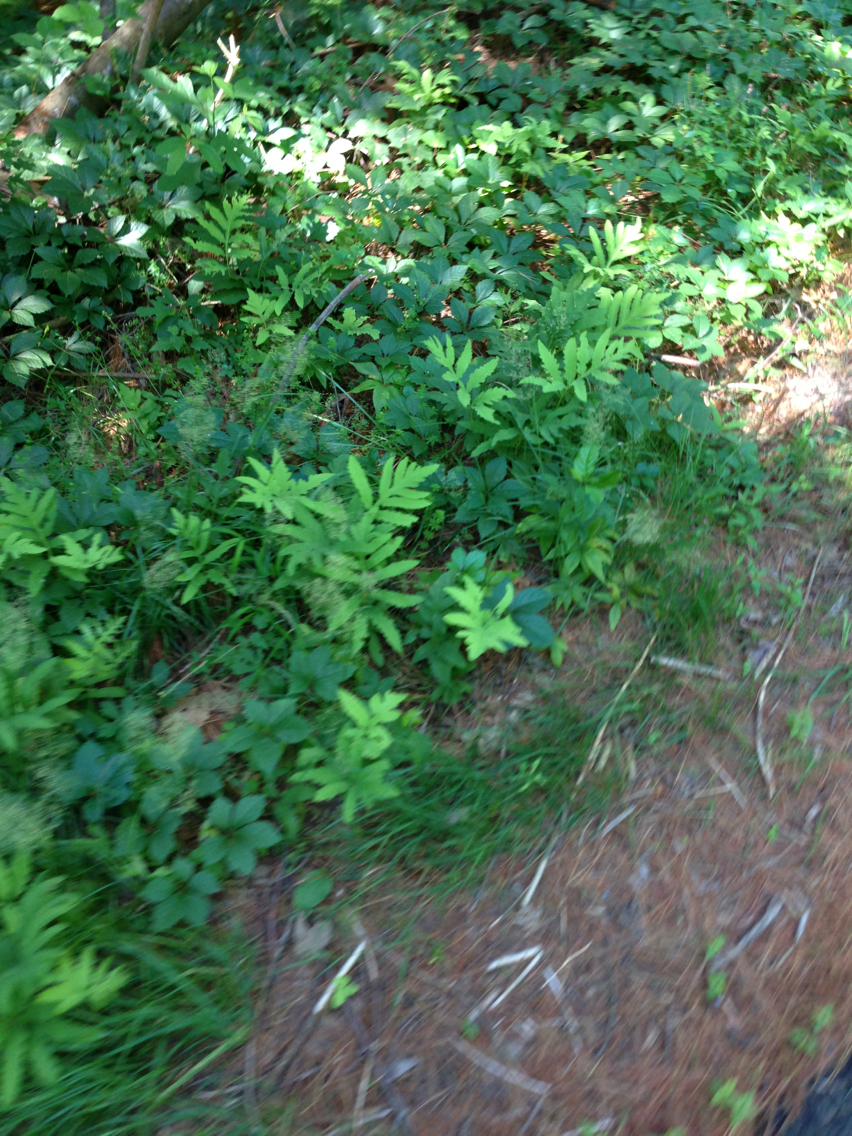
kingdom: Plantae
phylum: Tracheophyta
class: Polypodiopsida
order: Polypodiales
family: Onocleaceae
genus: Onoclea
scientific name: Onoclea sensibilis
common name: Sensitive fern
